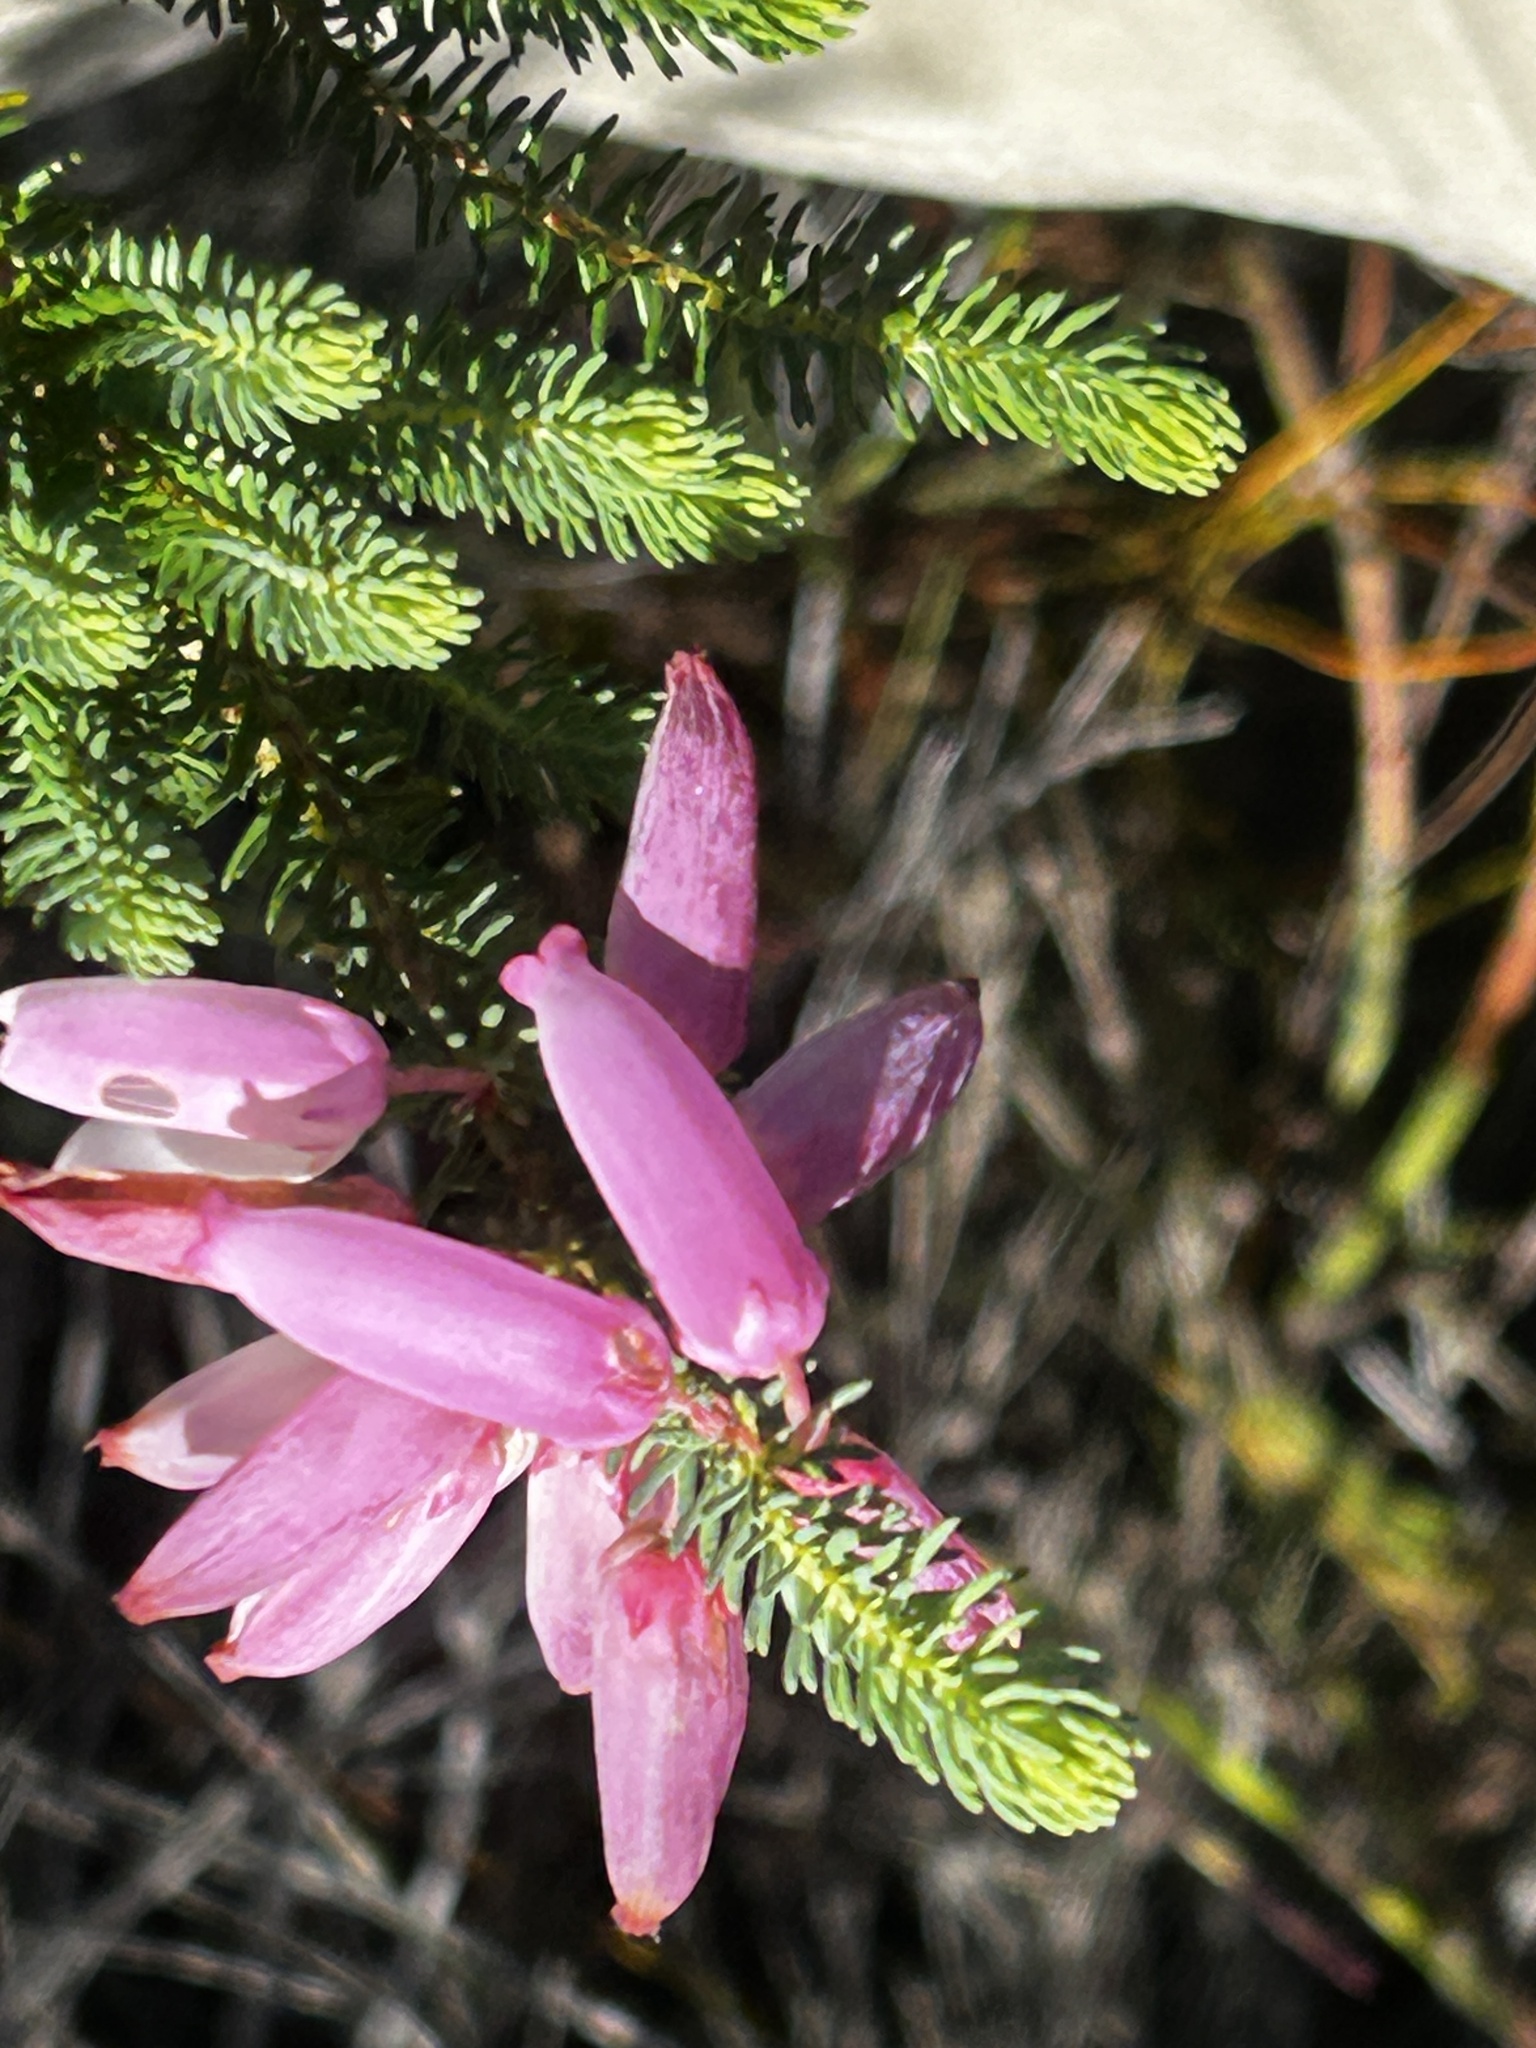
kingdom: Plantae
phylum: Tracheophyta
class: Magnoliopsida
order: Ericales
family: Ericaceae
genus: Erica
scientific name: Erica bauera
